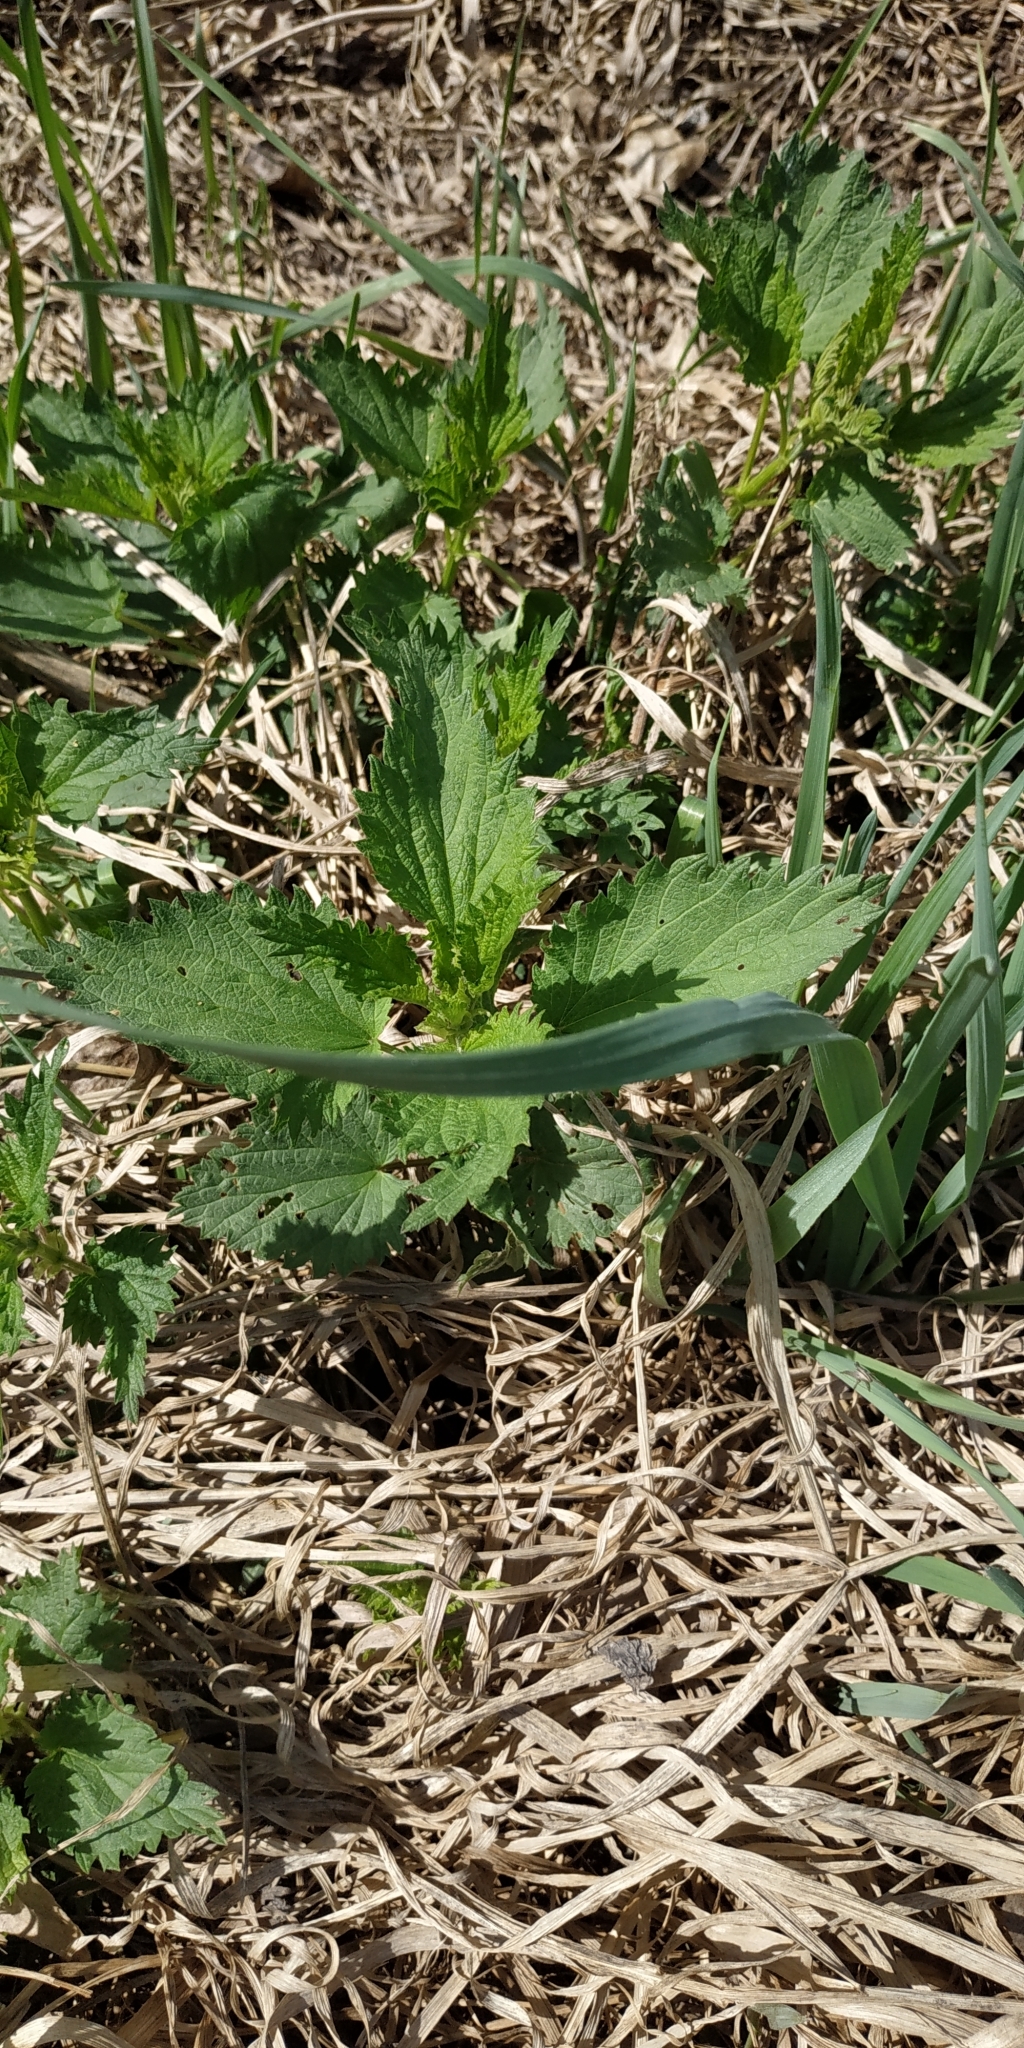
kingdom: Plantae
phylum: Tracheophyta
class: Magnoliopsida
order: Rosales
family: Urticaceae
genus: Urtica
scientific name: Urtica dioica
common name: Common nettle
